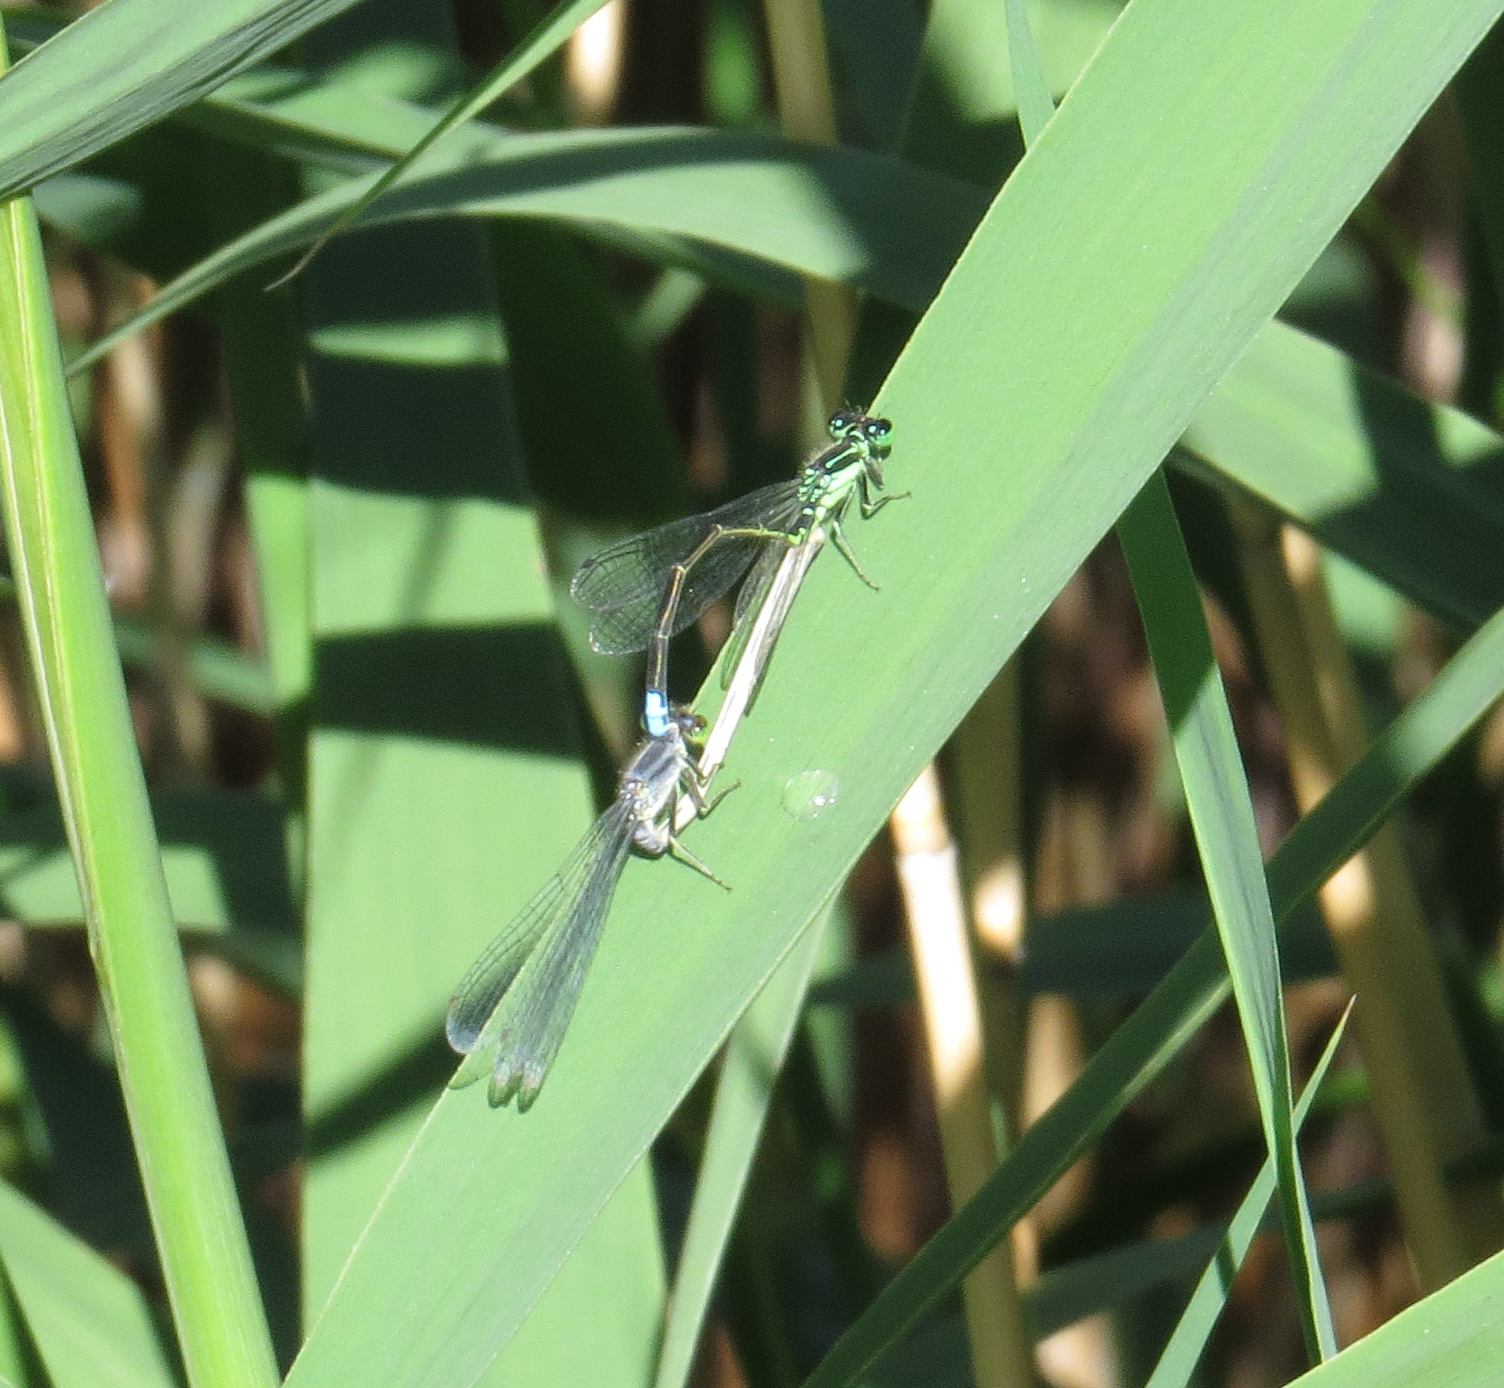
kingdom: Animalia
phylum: Arthropoda
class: Insecta
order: Odonata
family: Coenagrionidae
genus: Ischnura
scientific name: Ischnura verticalis
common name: Eastern forktail
